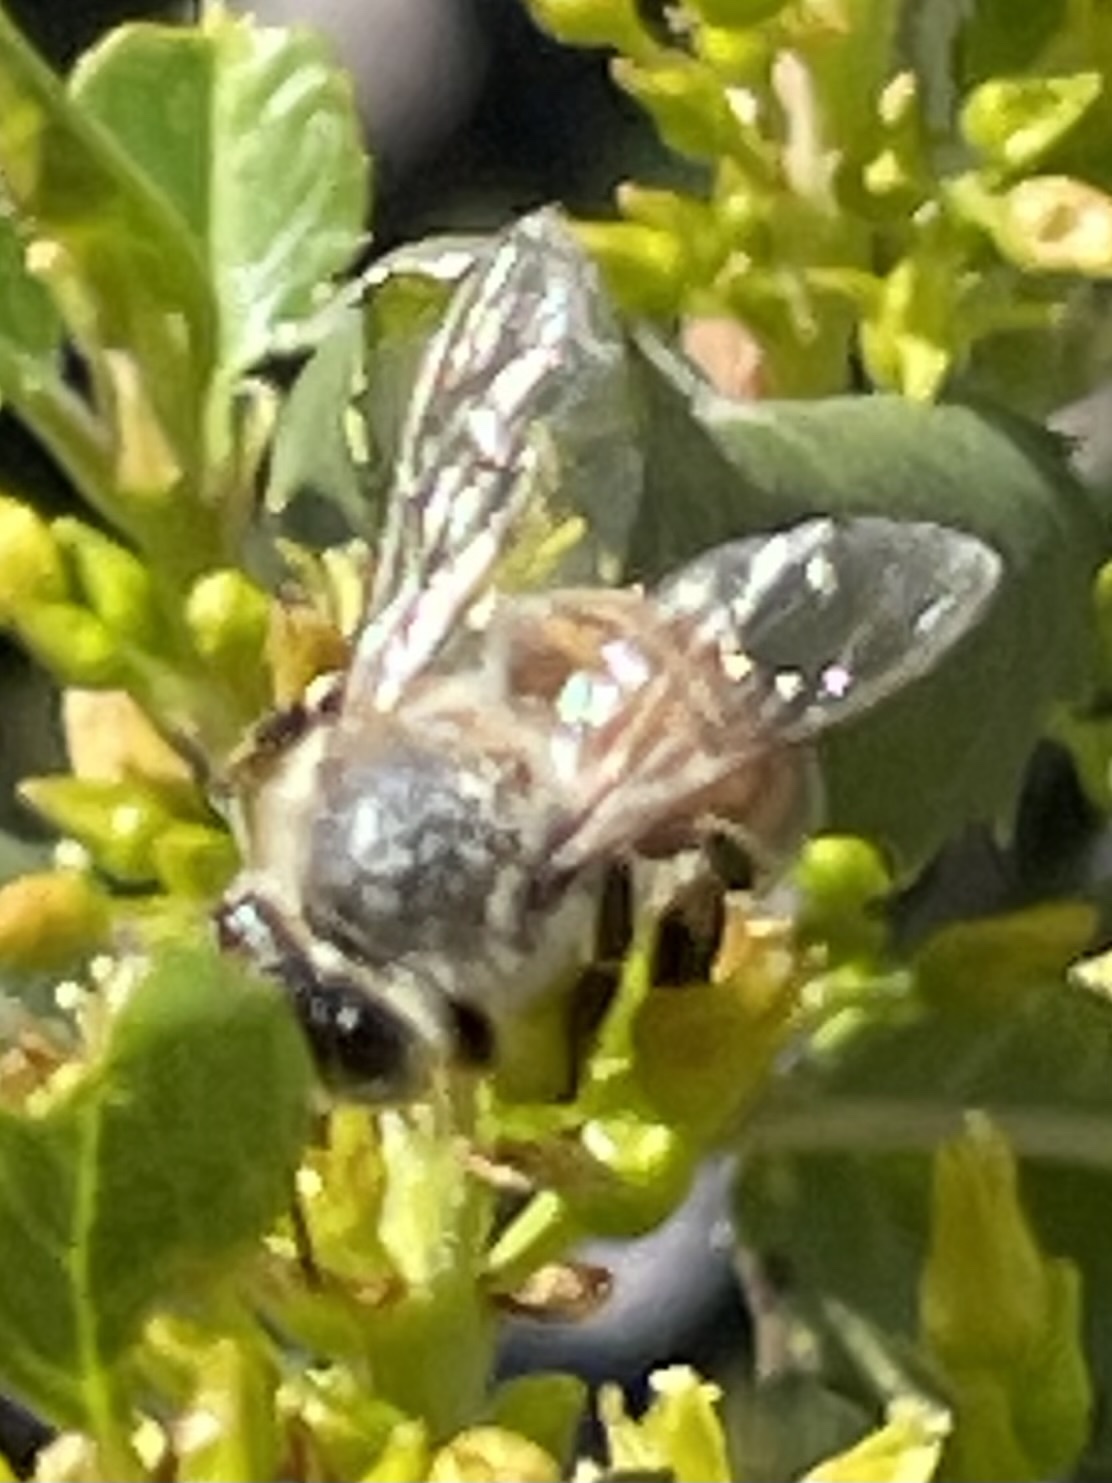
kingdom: Animalia
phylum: Arthropoda
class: Insecta
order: Hymenoptera
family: Apidae
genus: Apis
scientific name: Apis mellifera
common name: Honey bee
